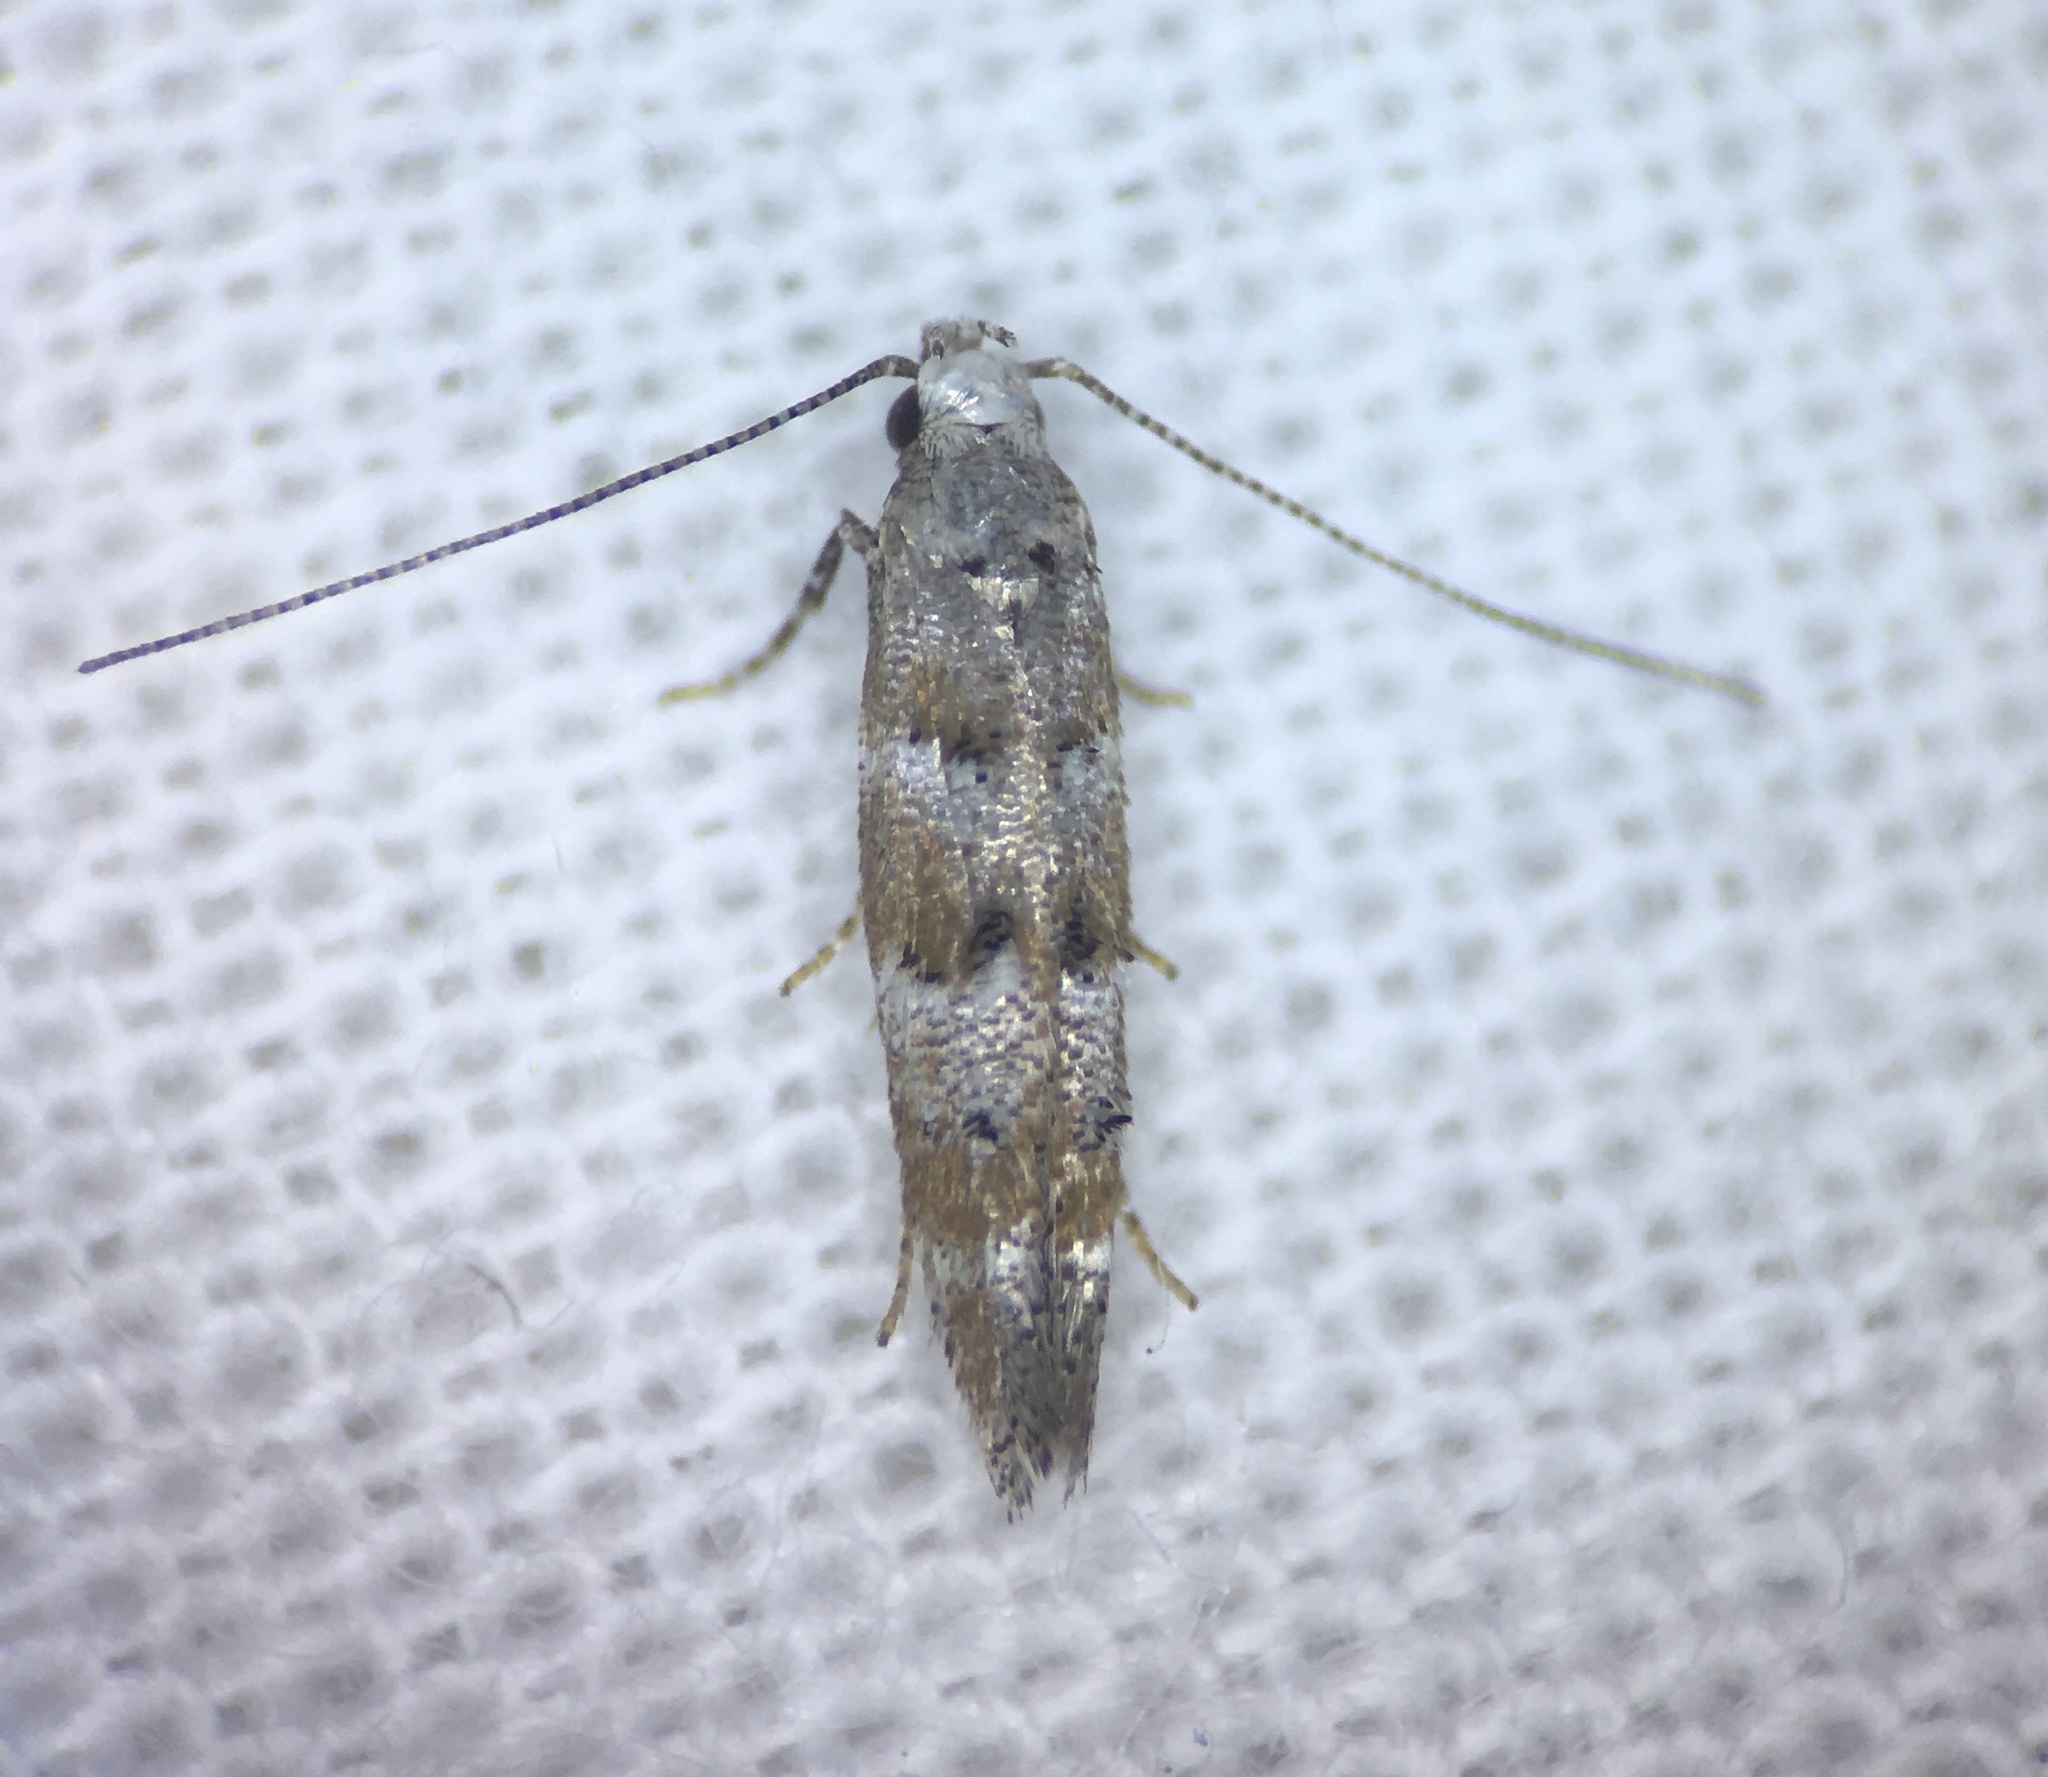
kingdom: Animalia
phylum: Arthropoda
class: Insecta
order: Lepidoptera
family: Gelechiidae
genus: Exoteleia
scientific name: Exoteleia pinifoliella
